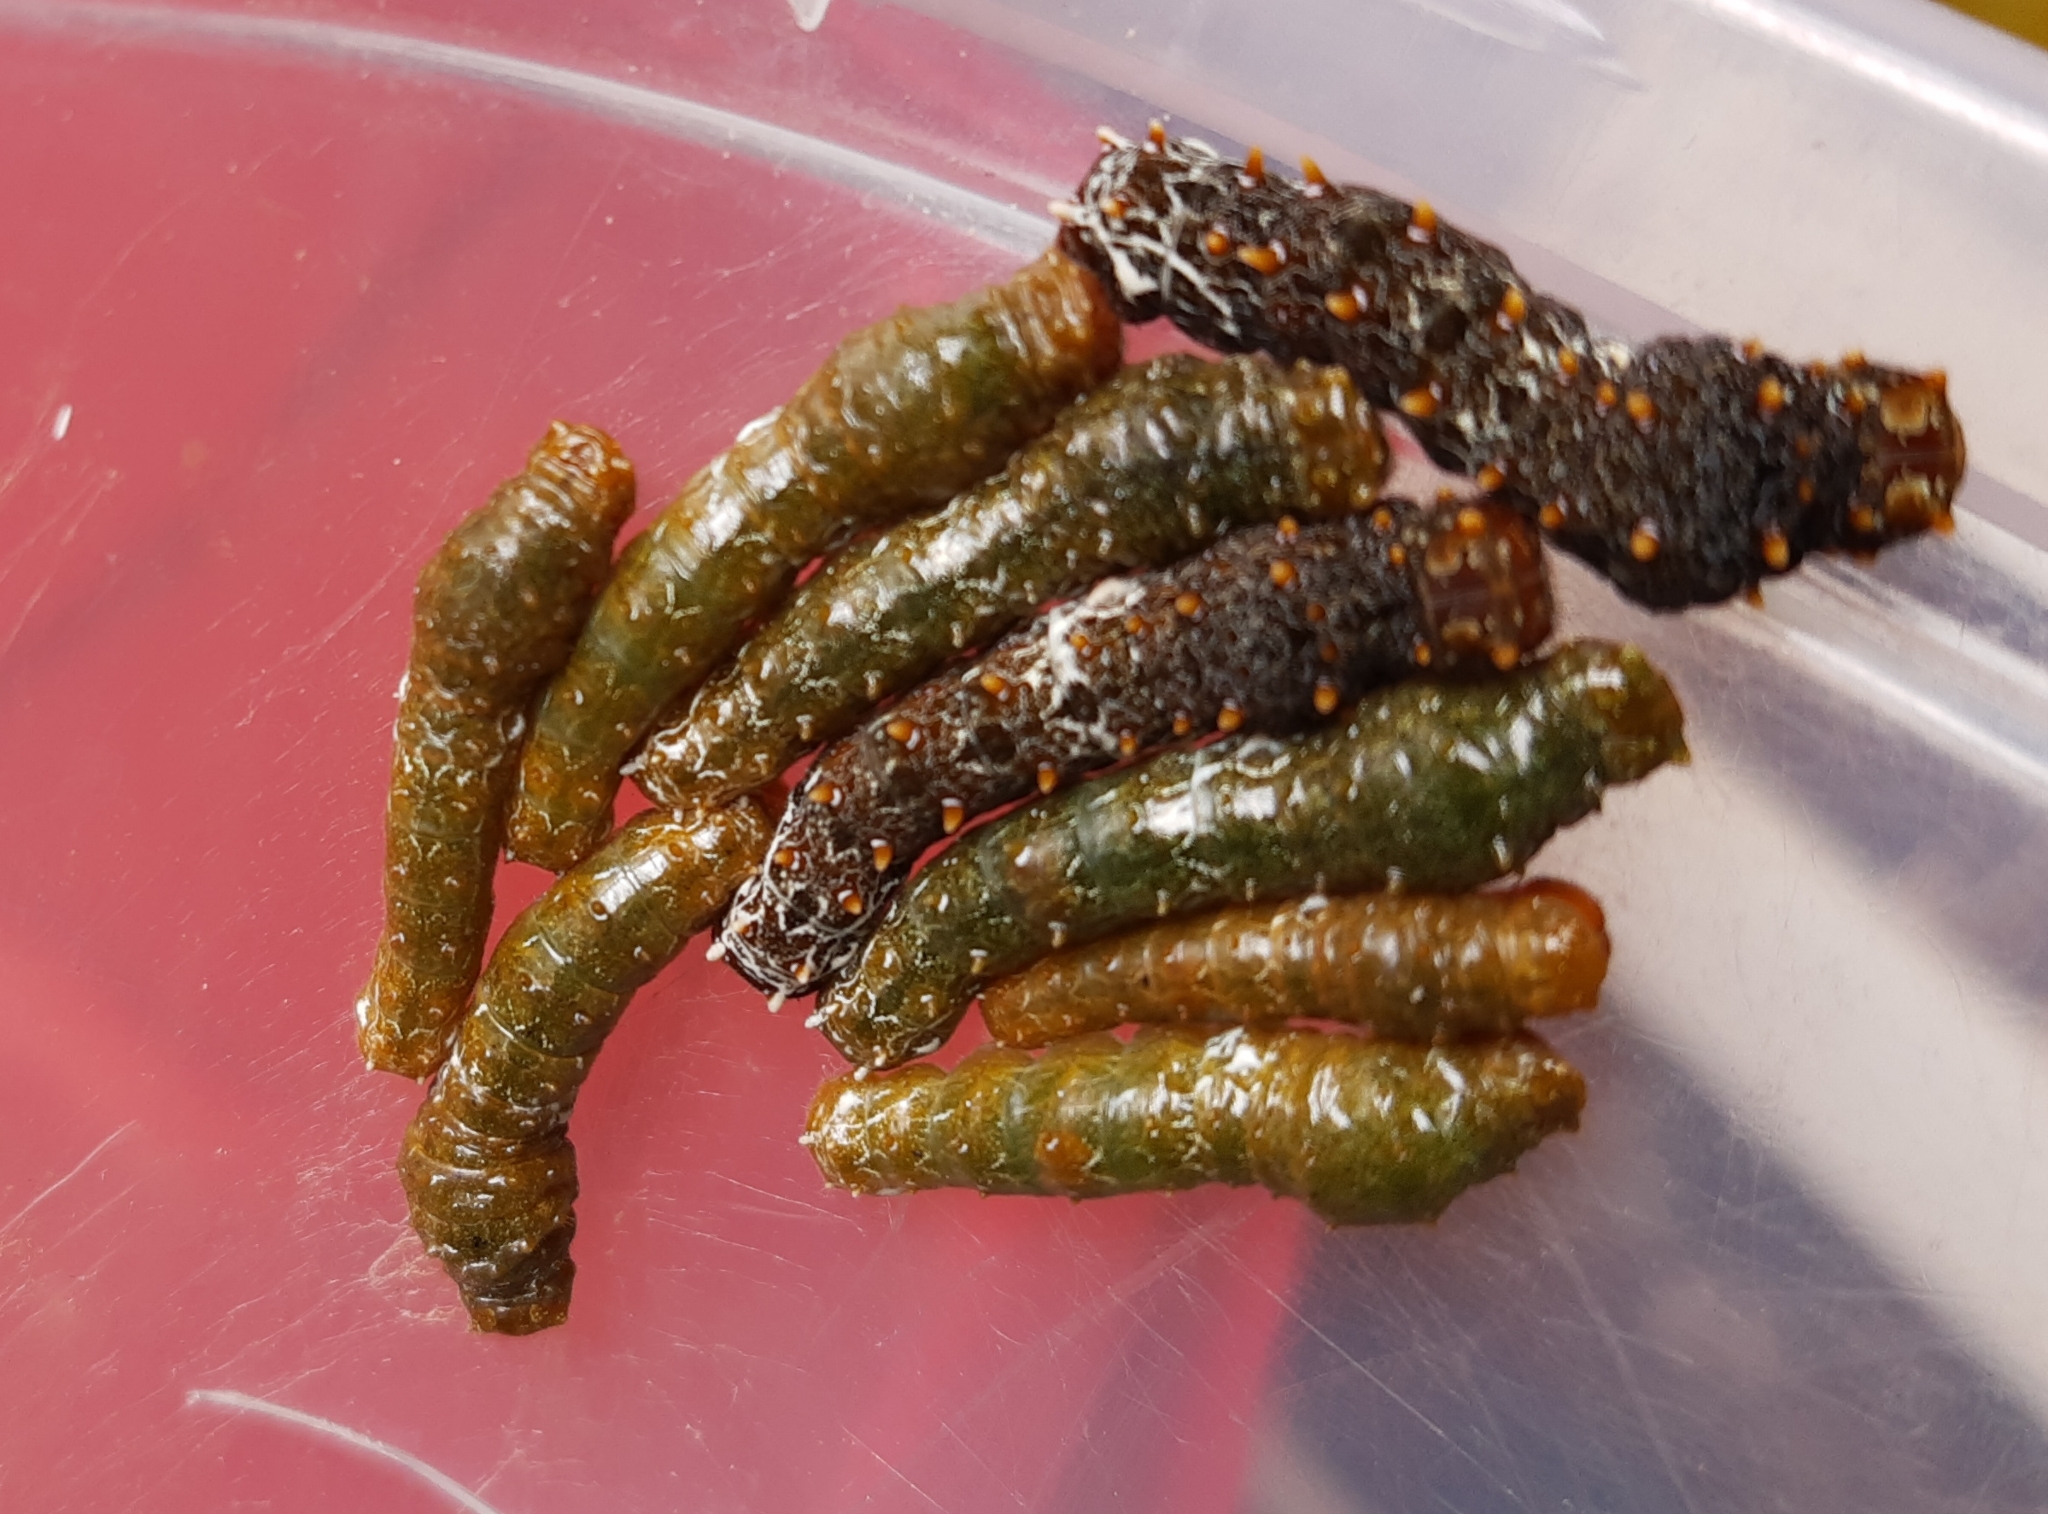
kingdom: Animalia
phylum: Arthropoda
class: Insecta
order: Lepidoptera
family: Papilionidae
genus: Papilio
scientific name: Papilio anchisiades
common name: Idaes swallowtail
